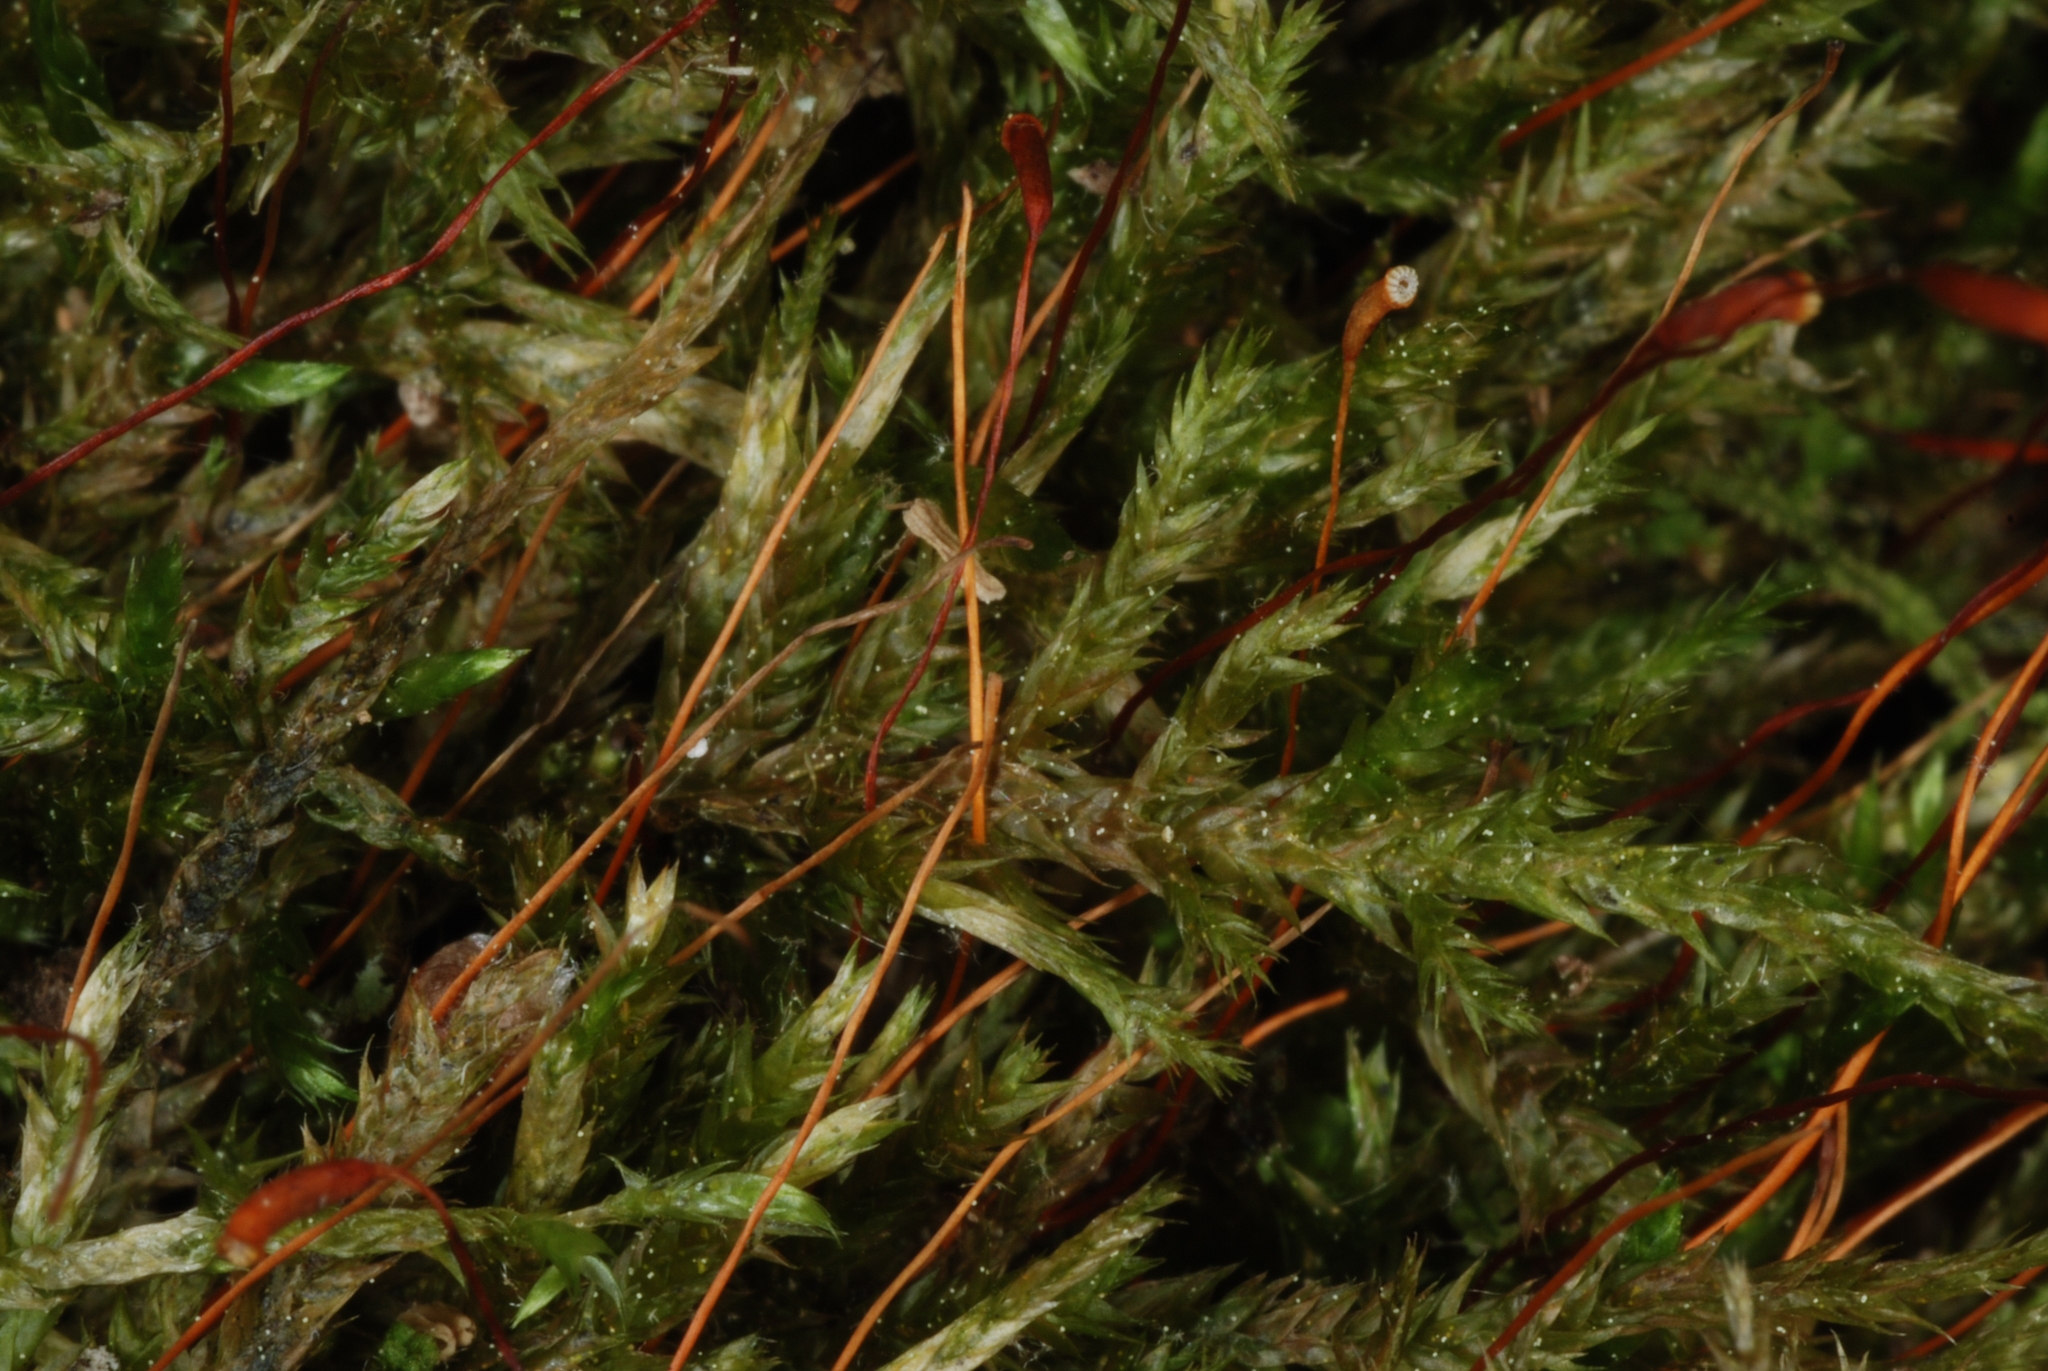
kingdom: Plantae
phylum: Bryophyta
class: Bryopsida
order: Hypnales
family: Callicladiaceae
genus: Callicladium
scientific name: Callicladium haldanianum
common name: Beautiful branch moss
